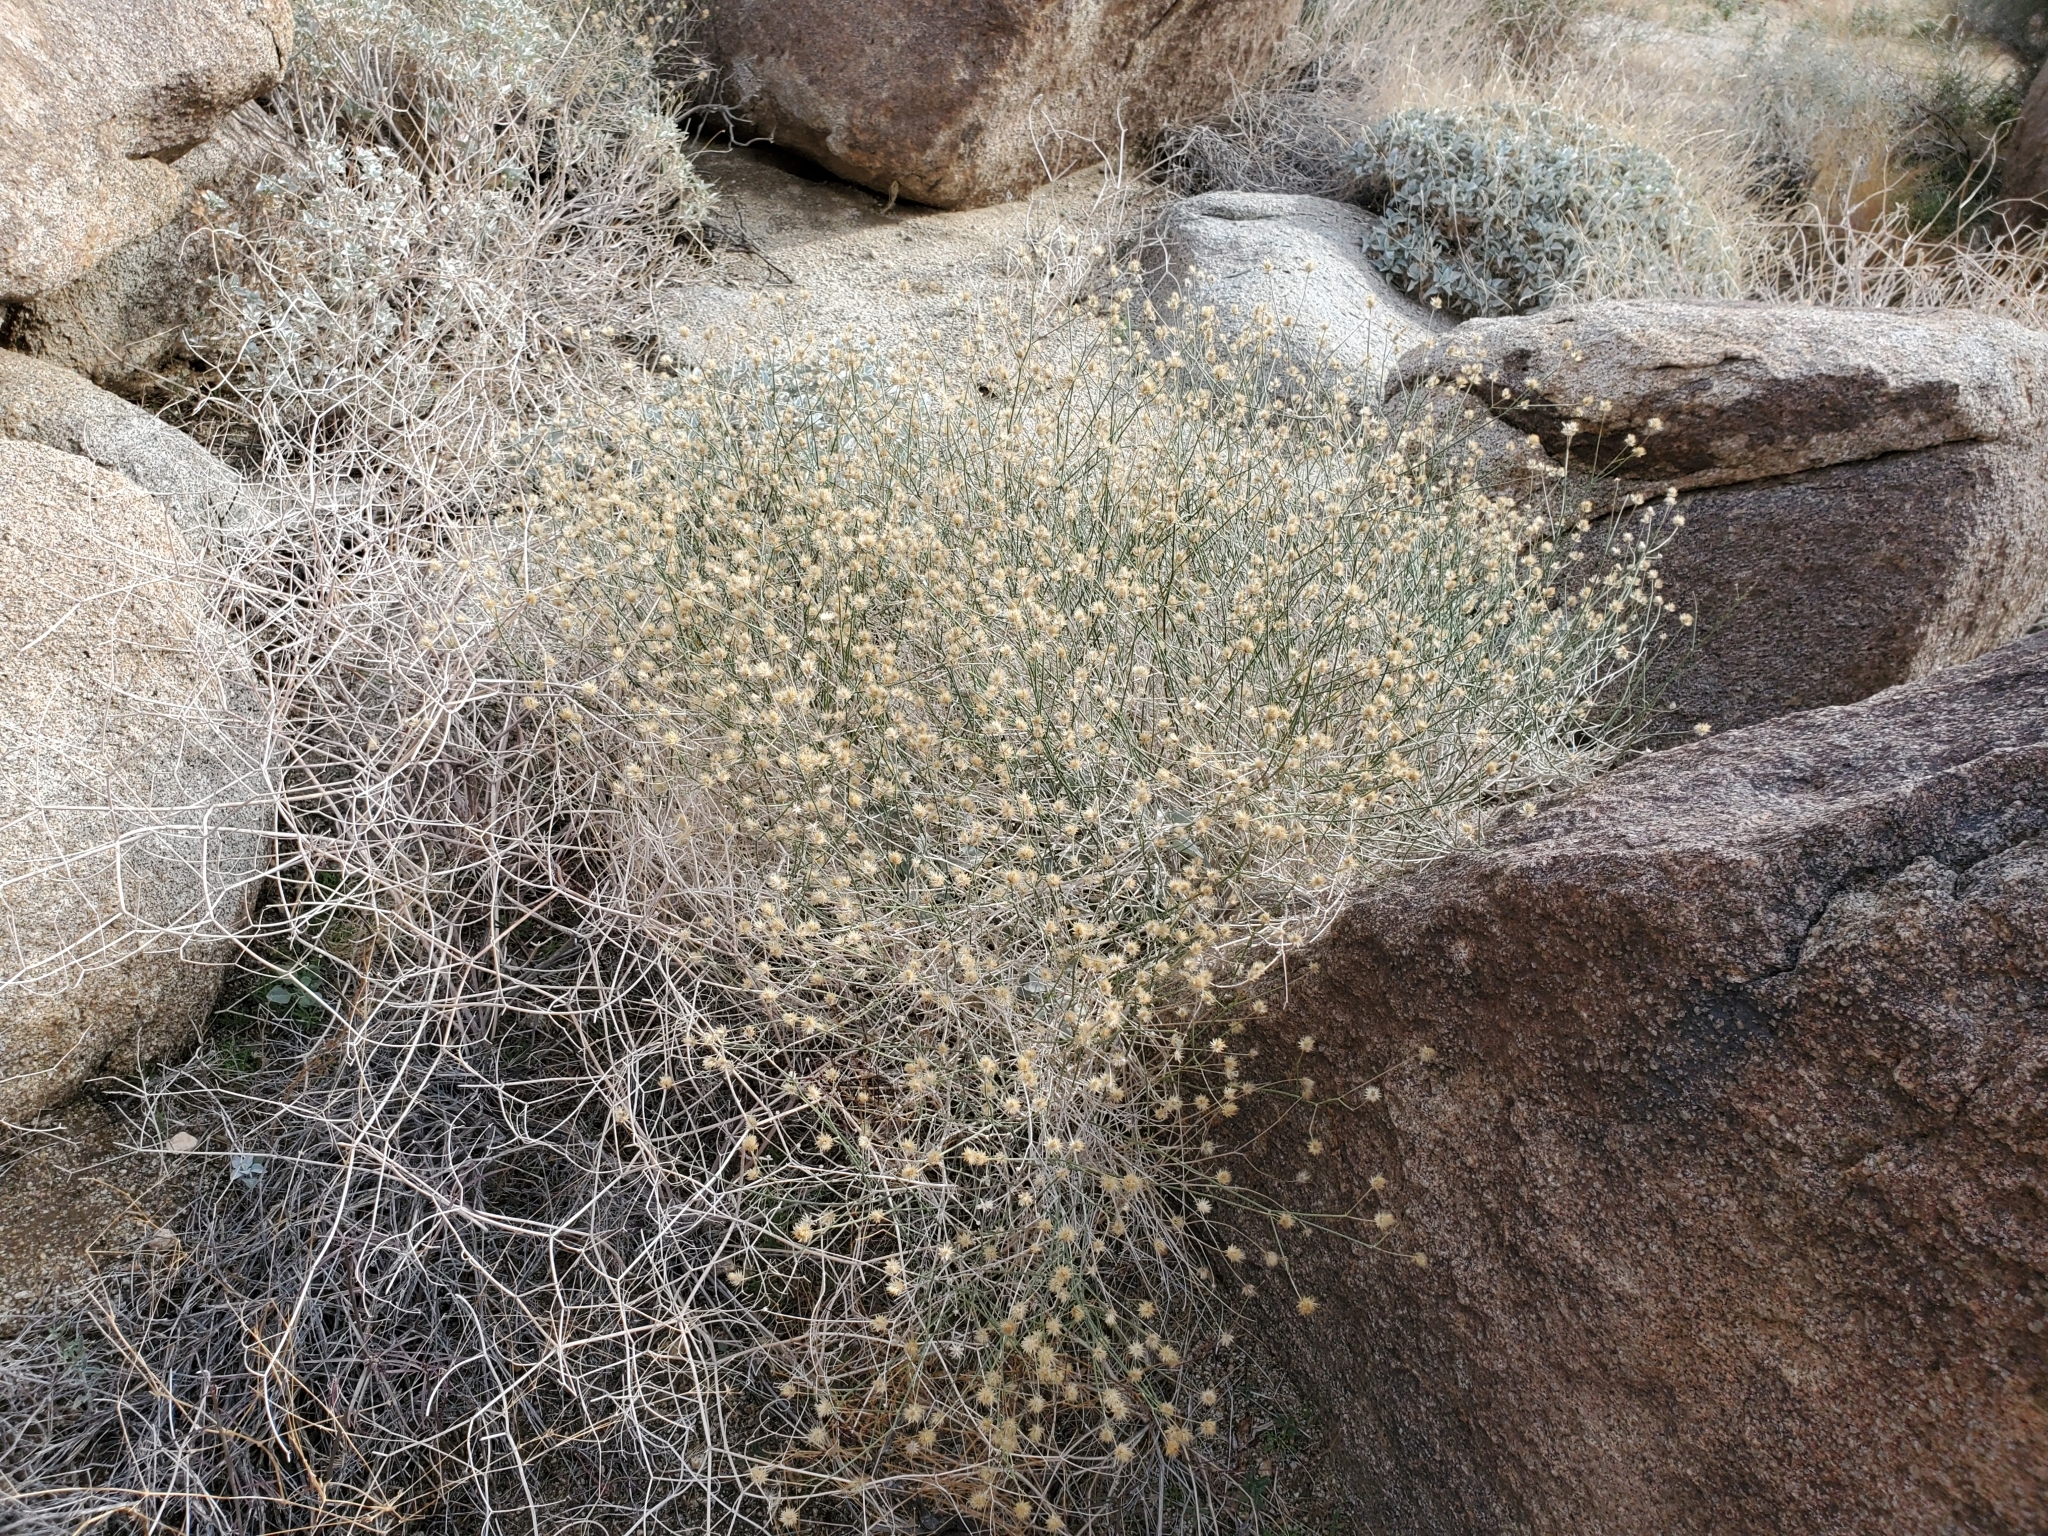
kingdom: Plantae
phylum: Tracheophyta
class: Magnoliopsida
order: Asterales
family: Asteraceae
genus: Bebbia
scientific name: Bebbia juncea
